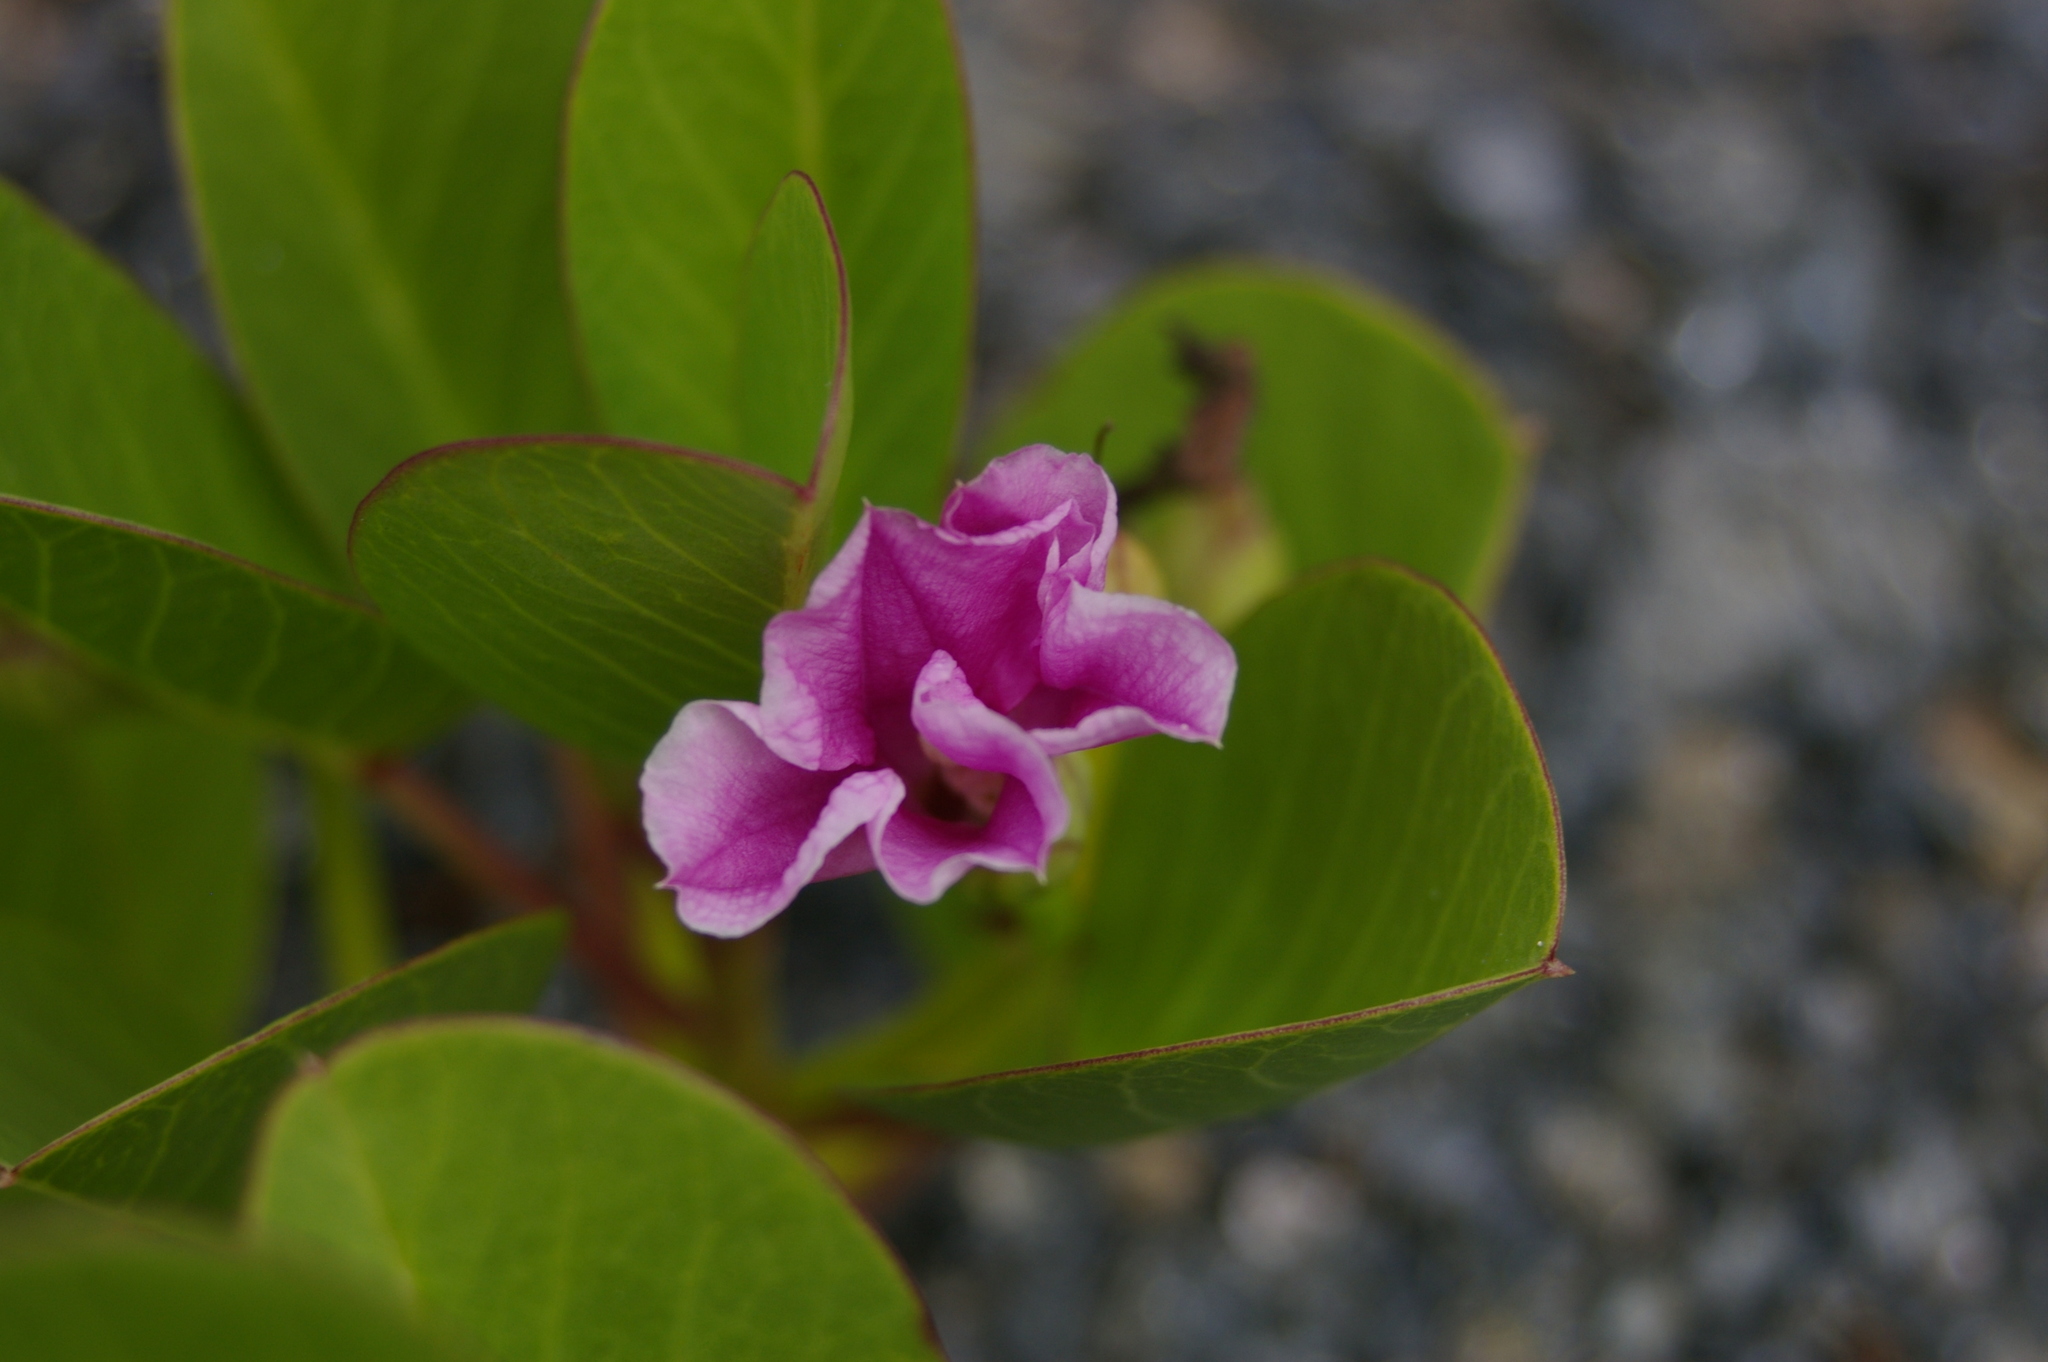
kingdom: Plantae
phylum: Tracheophyta
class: Magnoliopsida
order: Solanales
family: Convolvulaceae
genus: Ipomoea
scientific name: Ipomoea pes-caprae
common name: Beach morning glory
